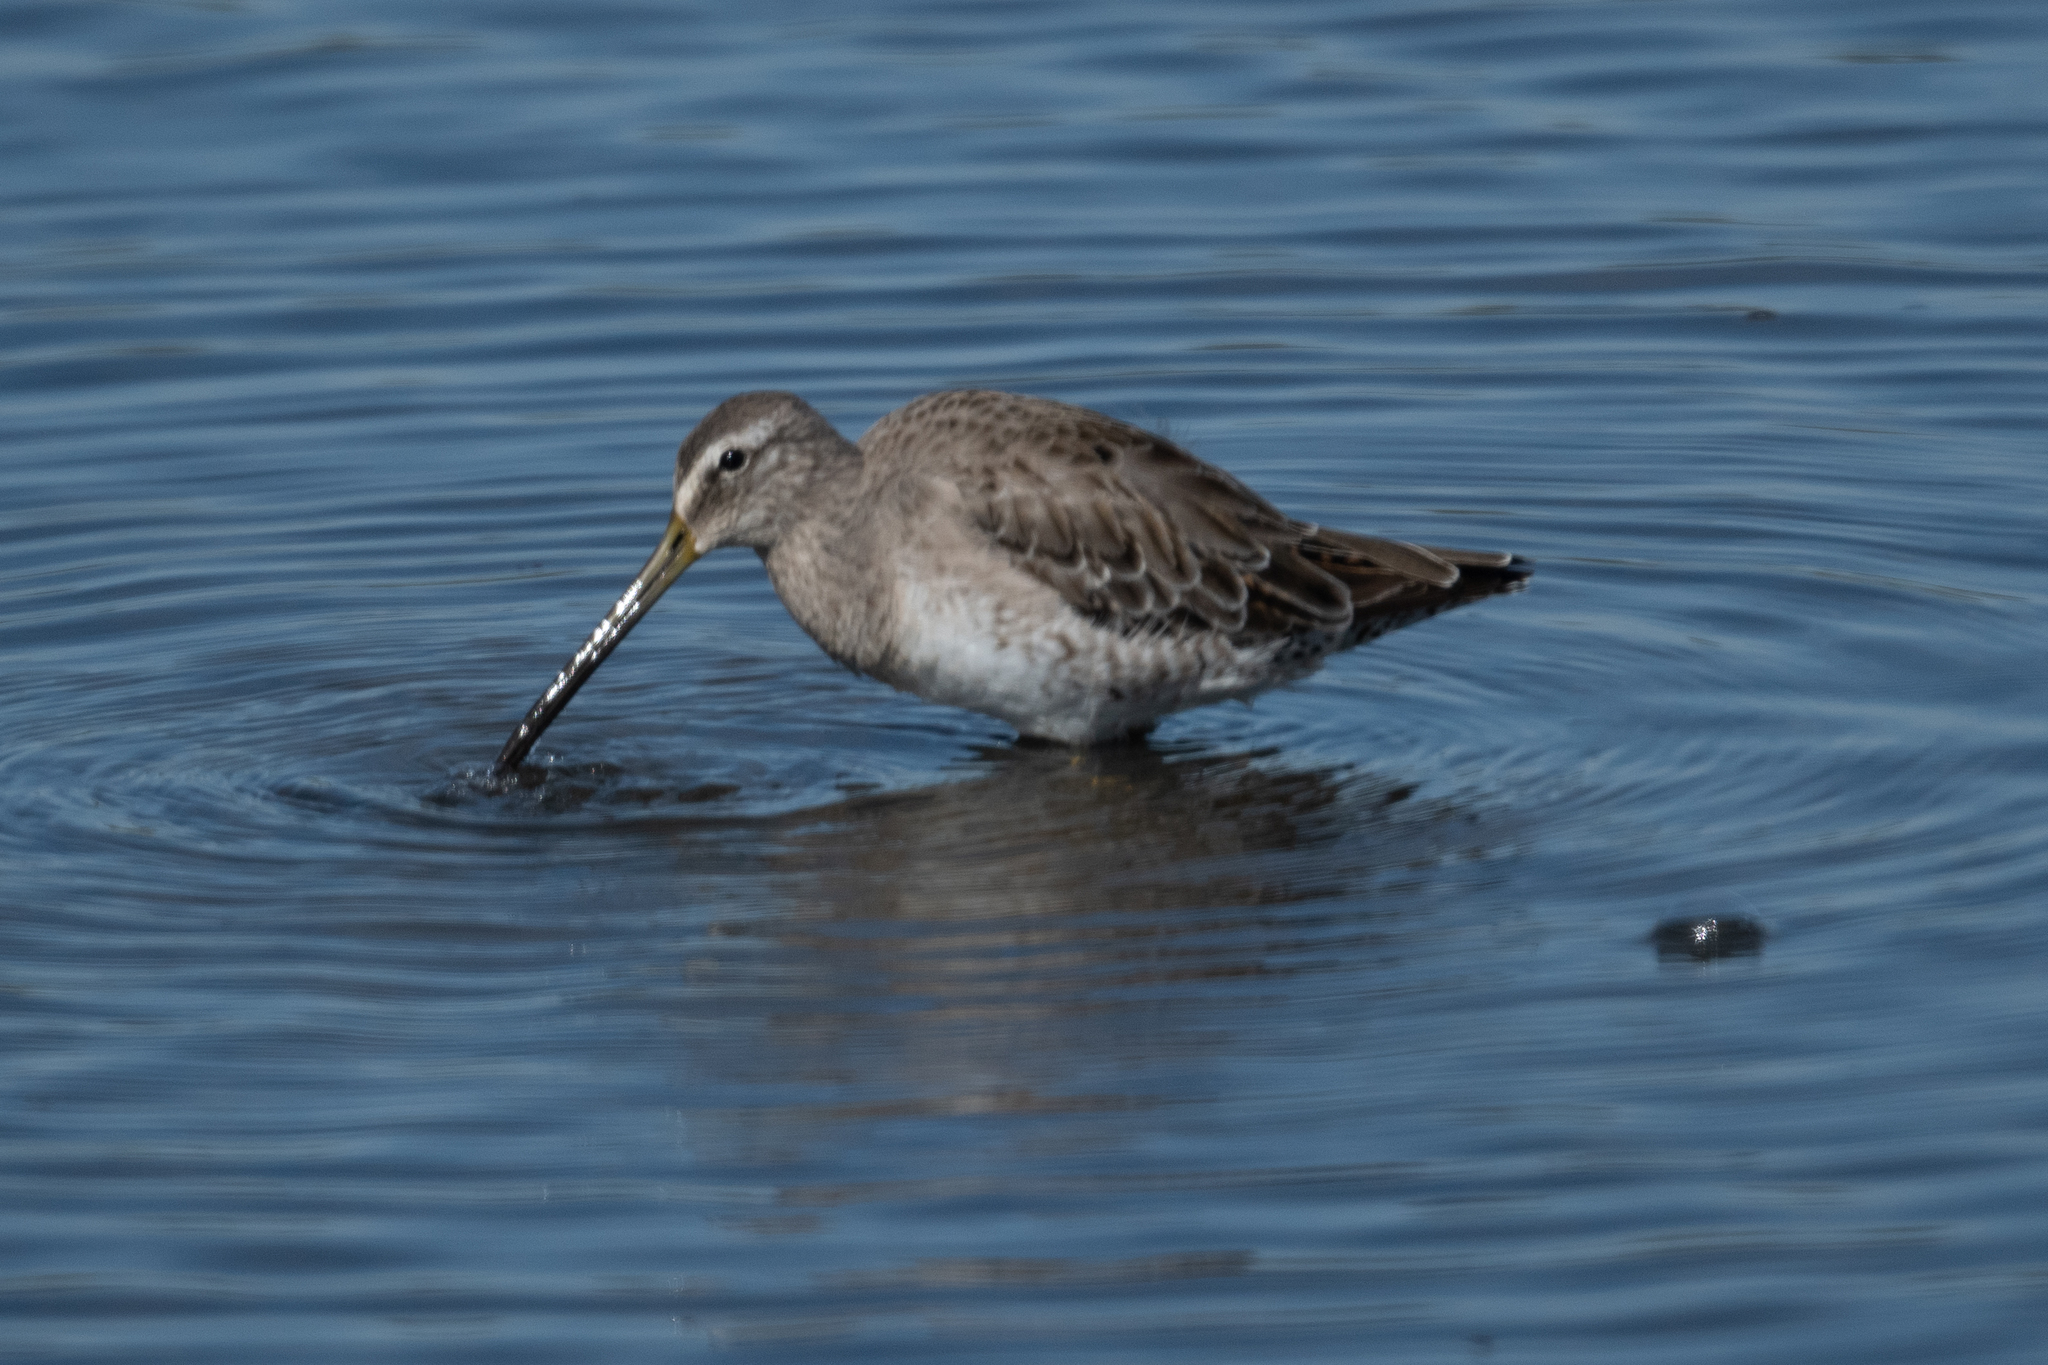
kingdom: Animalia
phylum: Chordata
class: Aves
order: Charadriiformes
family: Scolopacidae
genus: Limnodromus
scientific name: Limnodromus scolopaceus
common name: Long-billed dowitcher
